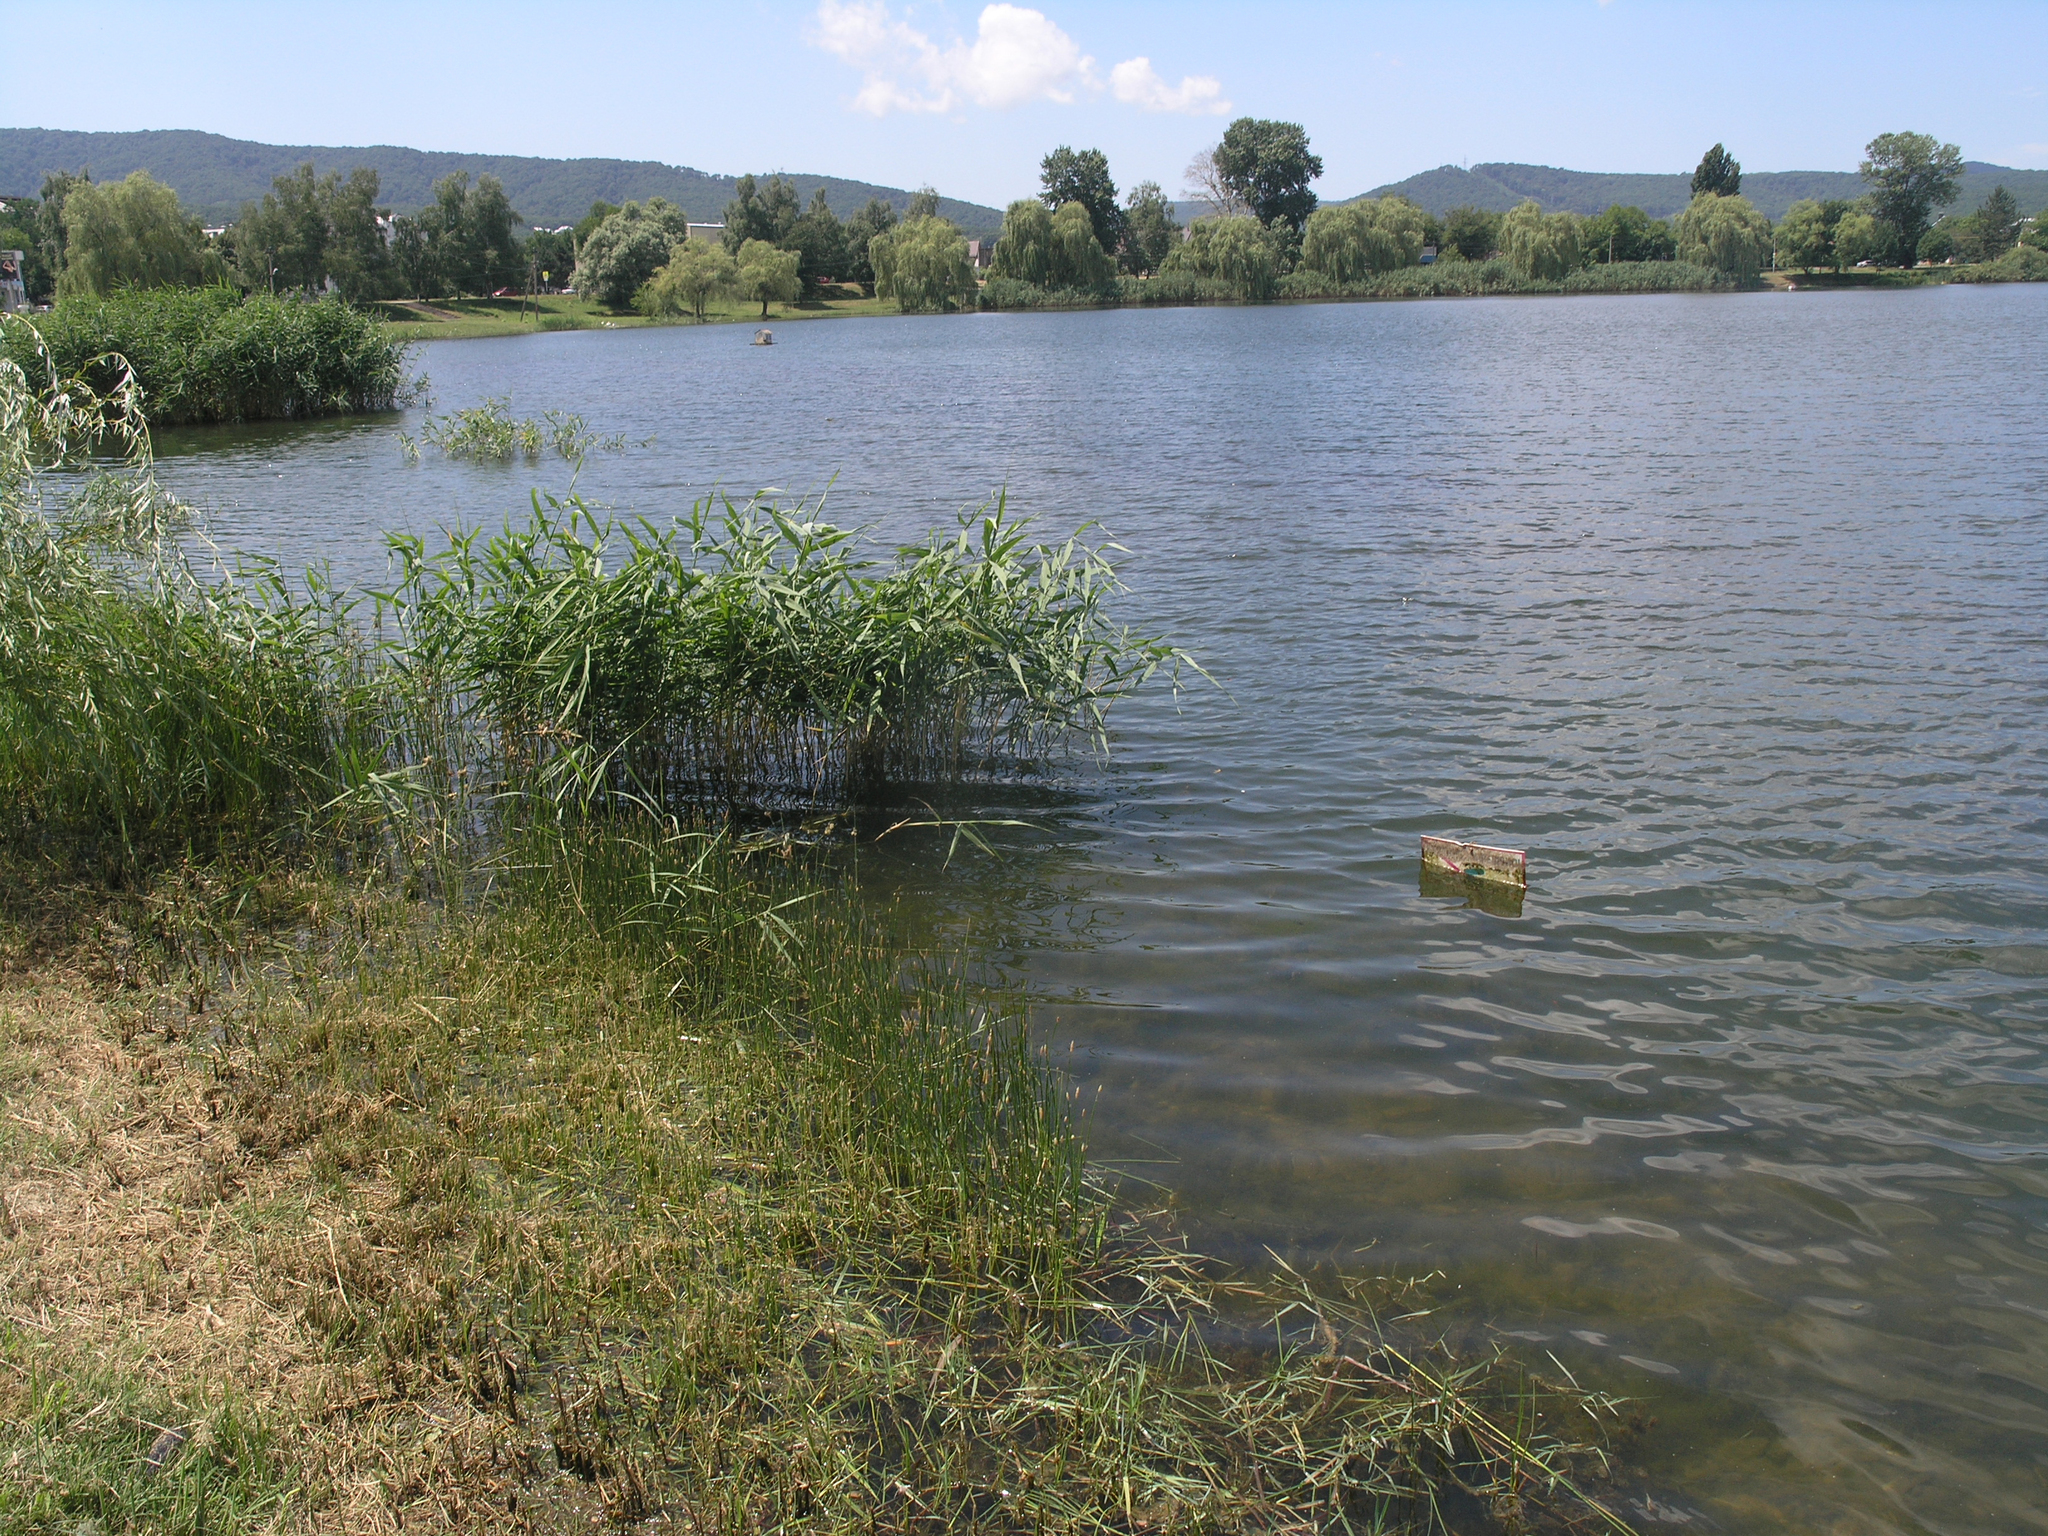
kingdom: Plantae
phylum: Tracheophyta
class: Liliopsida
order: Poales
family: Poaceae
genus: Phragmites
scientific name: Phragmites australis
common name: Common reed
